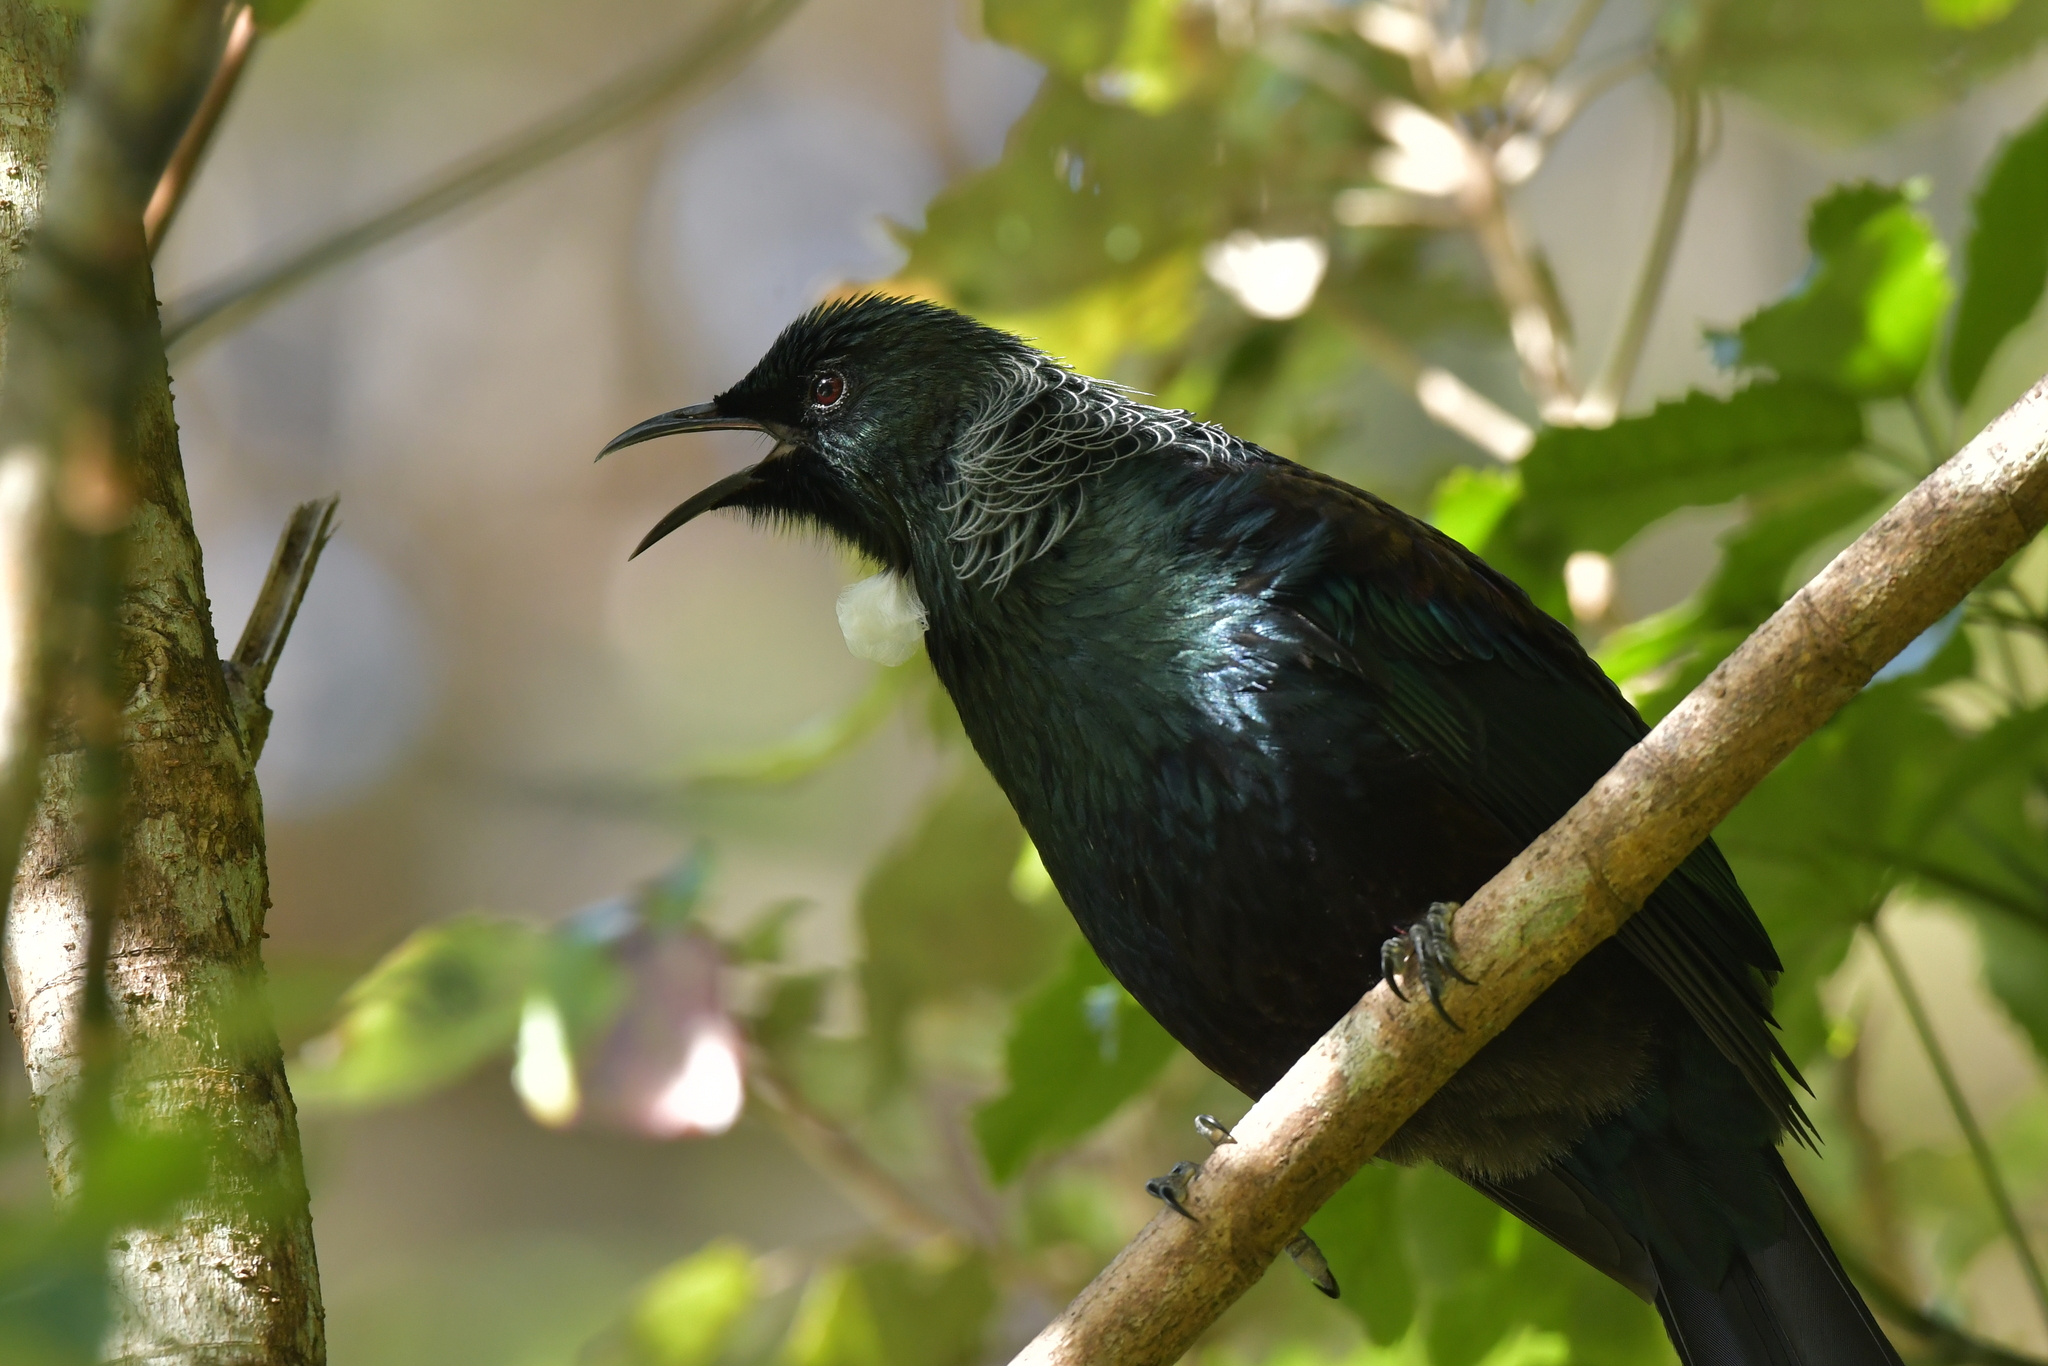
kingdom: Animalia
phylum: Chordata
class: Aves
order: Passeriformes
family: Meliphagidae
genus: Prosthemadera
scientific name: Prosthemadera novaeseelandiae
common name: Tui
